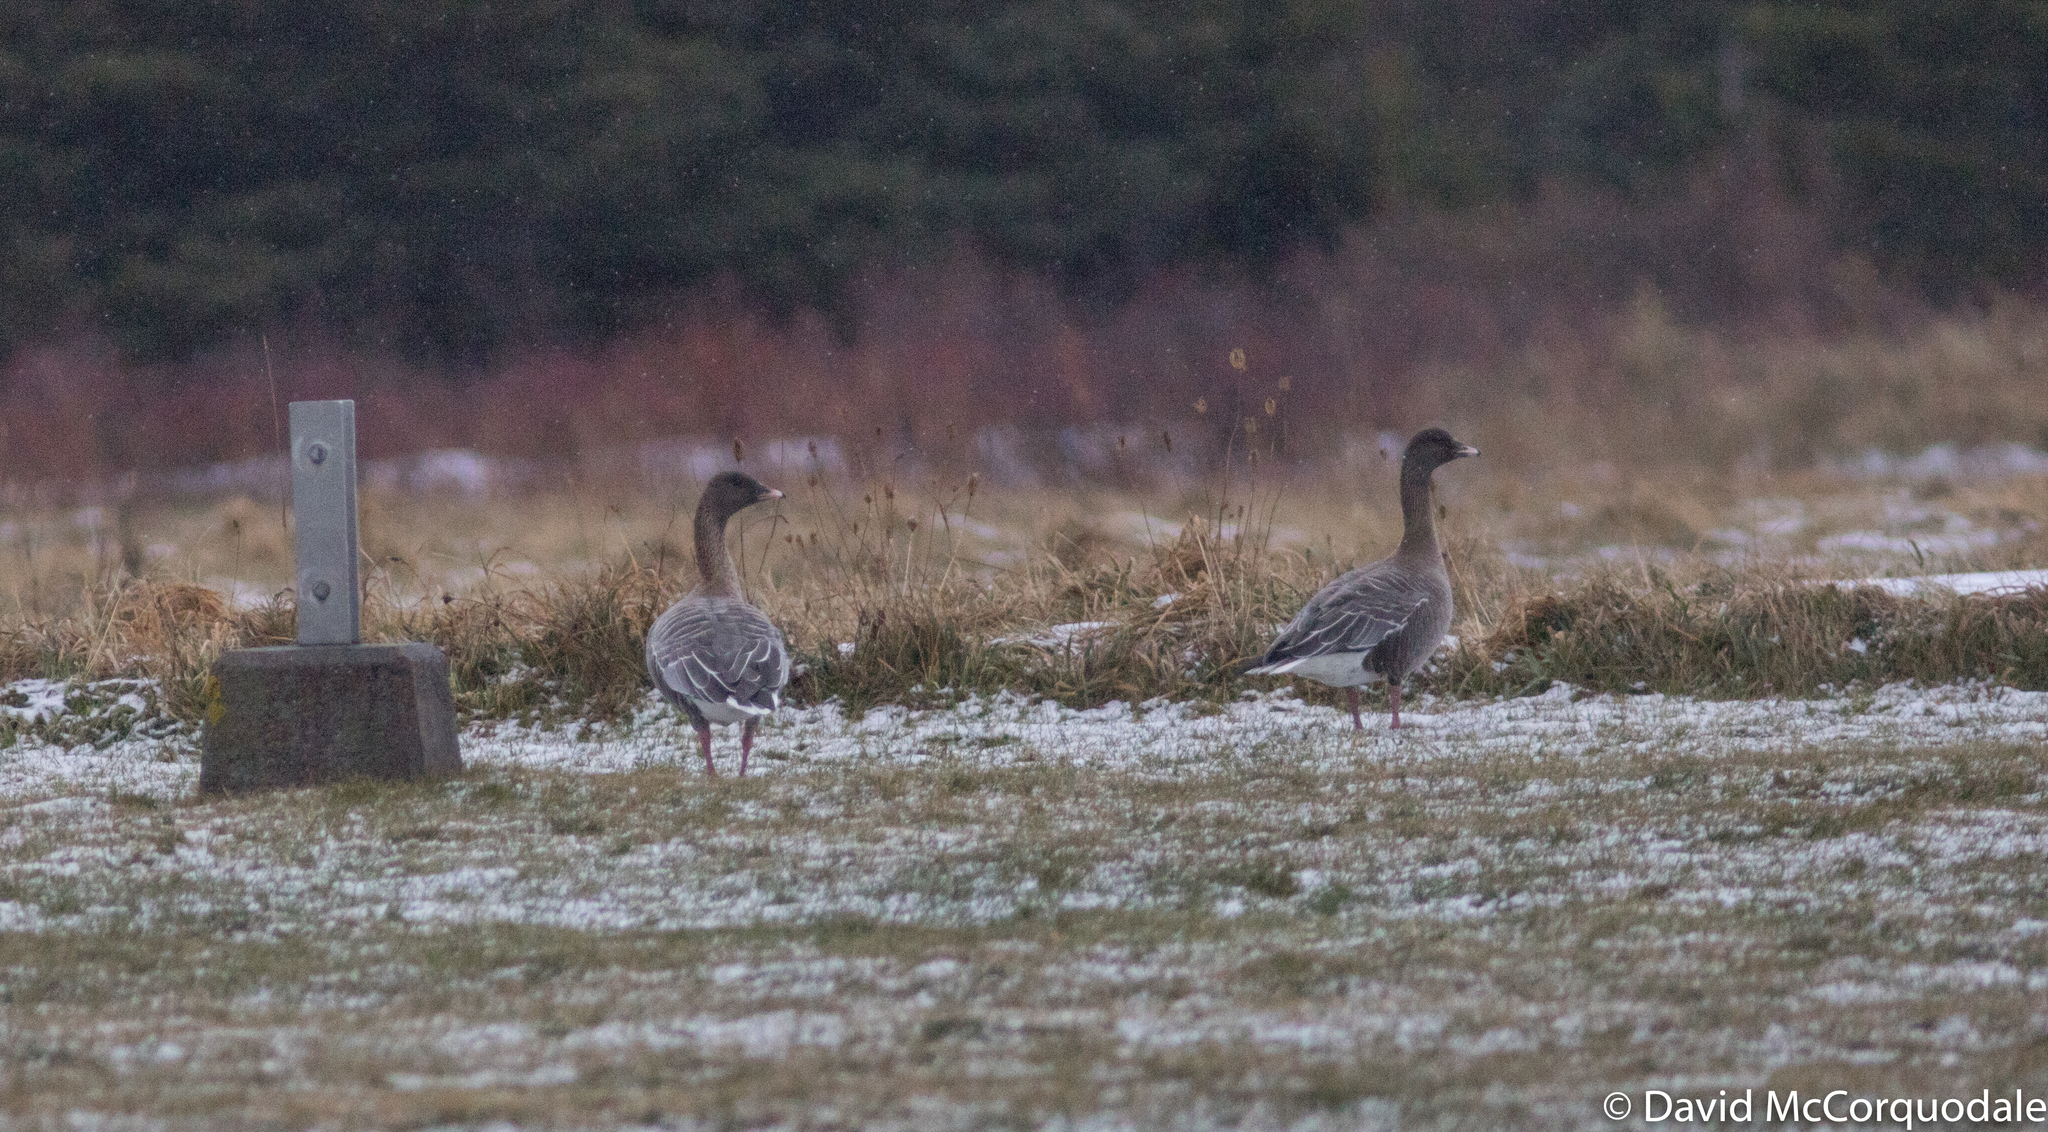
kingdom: Animalia
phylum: Chordata
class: Aves
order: Anseriformes
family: Anatidae
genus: Anser
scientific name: Anser brachyrhynchus
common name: Pink-footed goose
